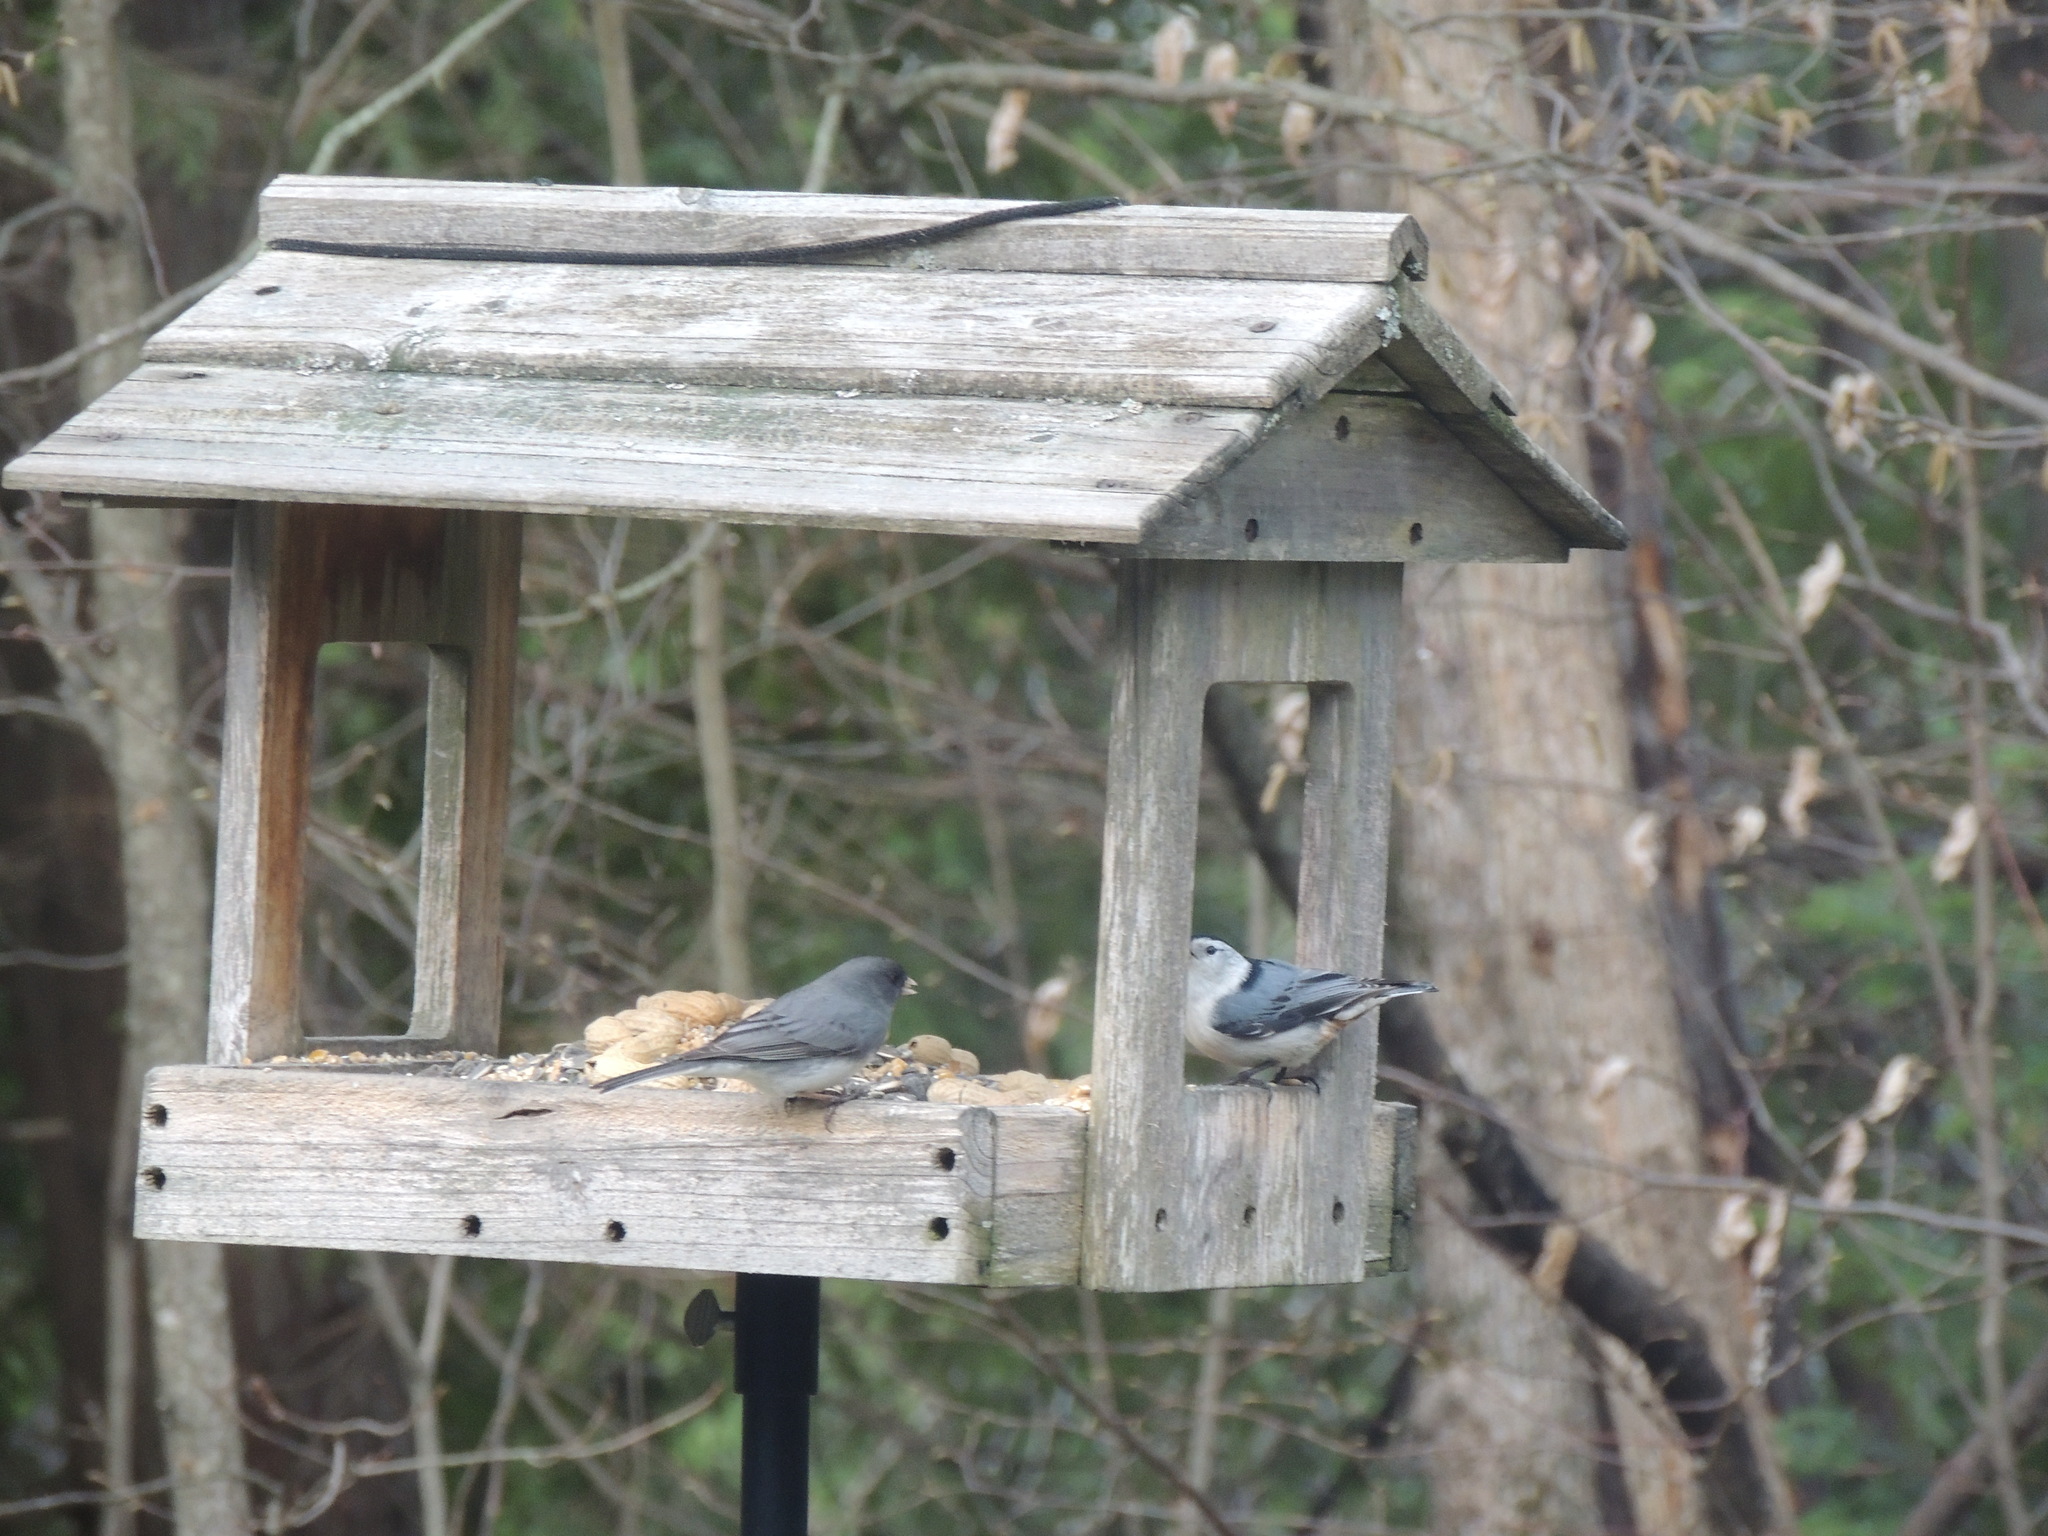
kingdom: Animalia
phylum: Chordata
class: Aves
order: Passeriformes
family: Sittidae
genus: Sitta
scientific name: Sitta carolinensis
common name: White-breasted nuthatch
